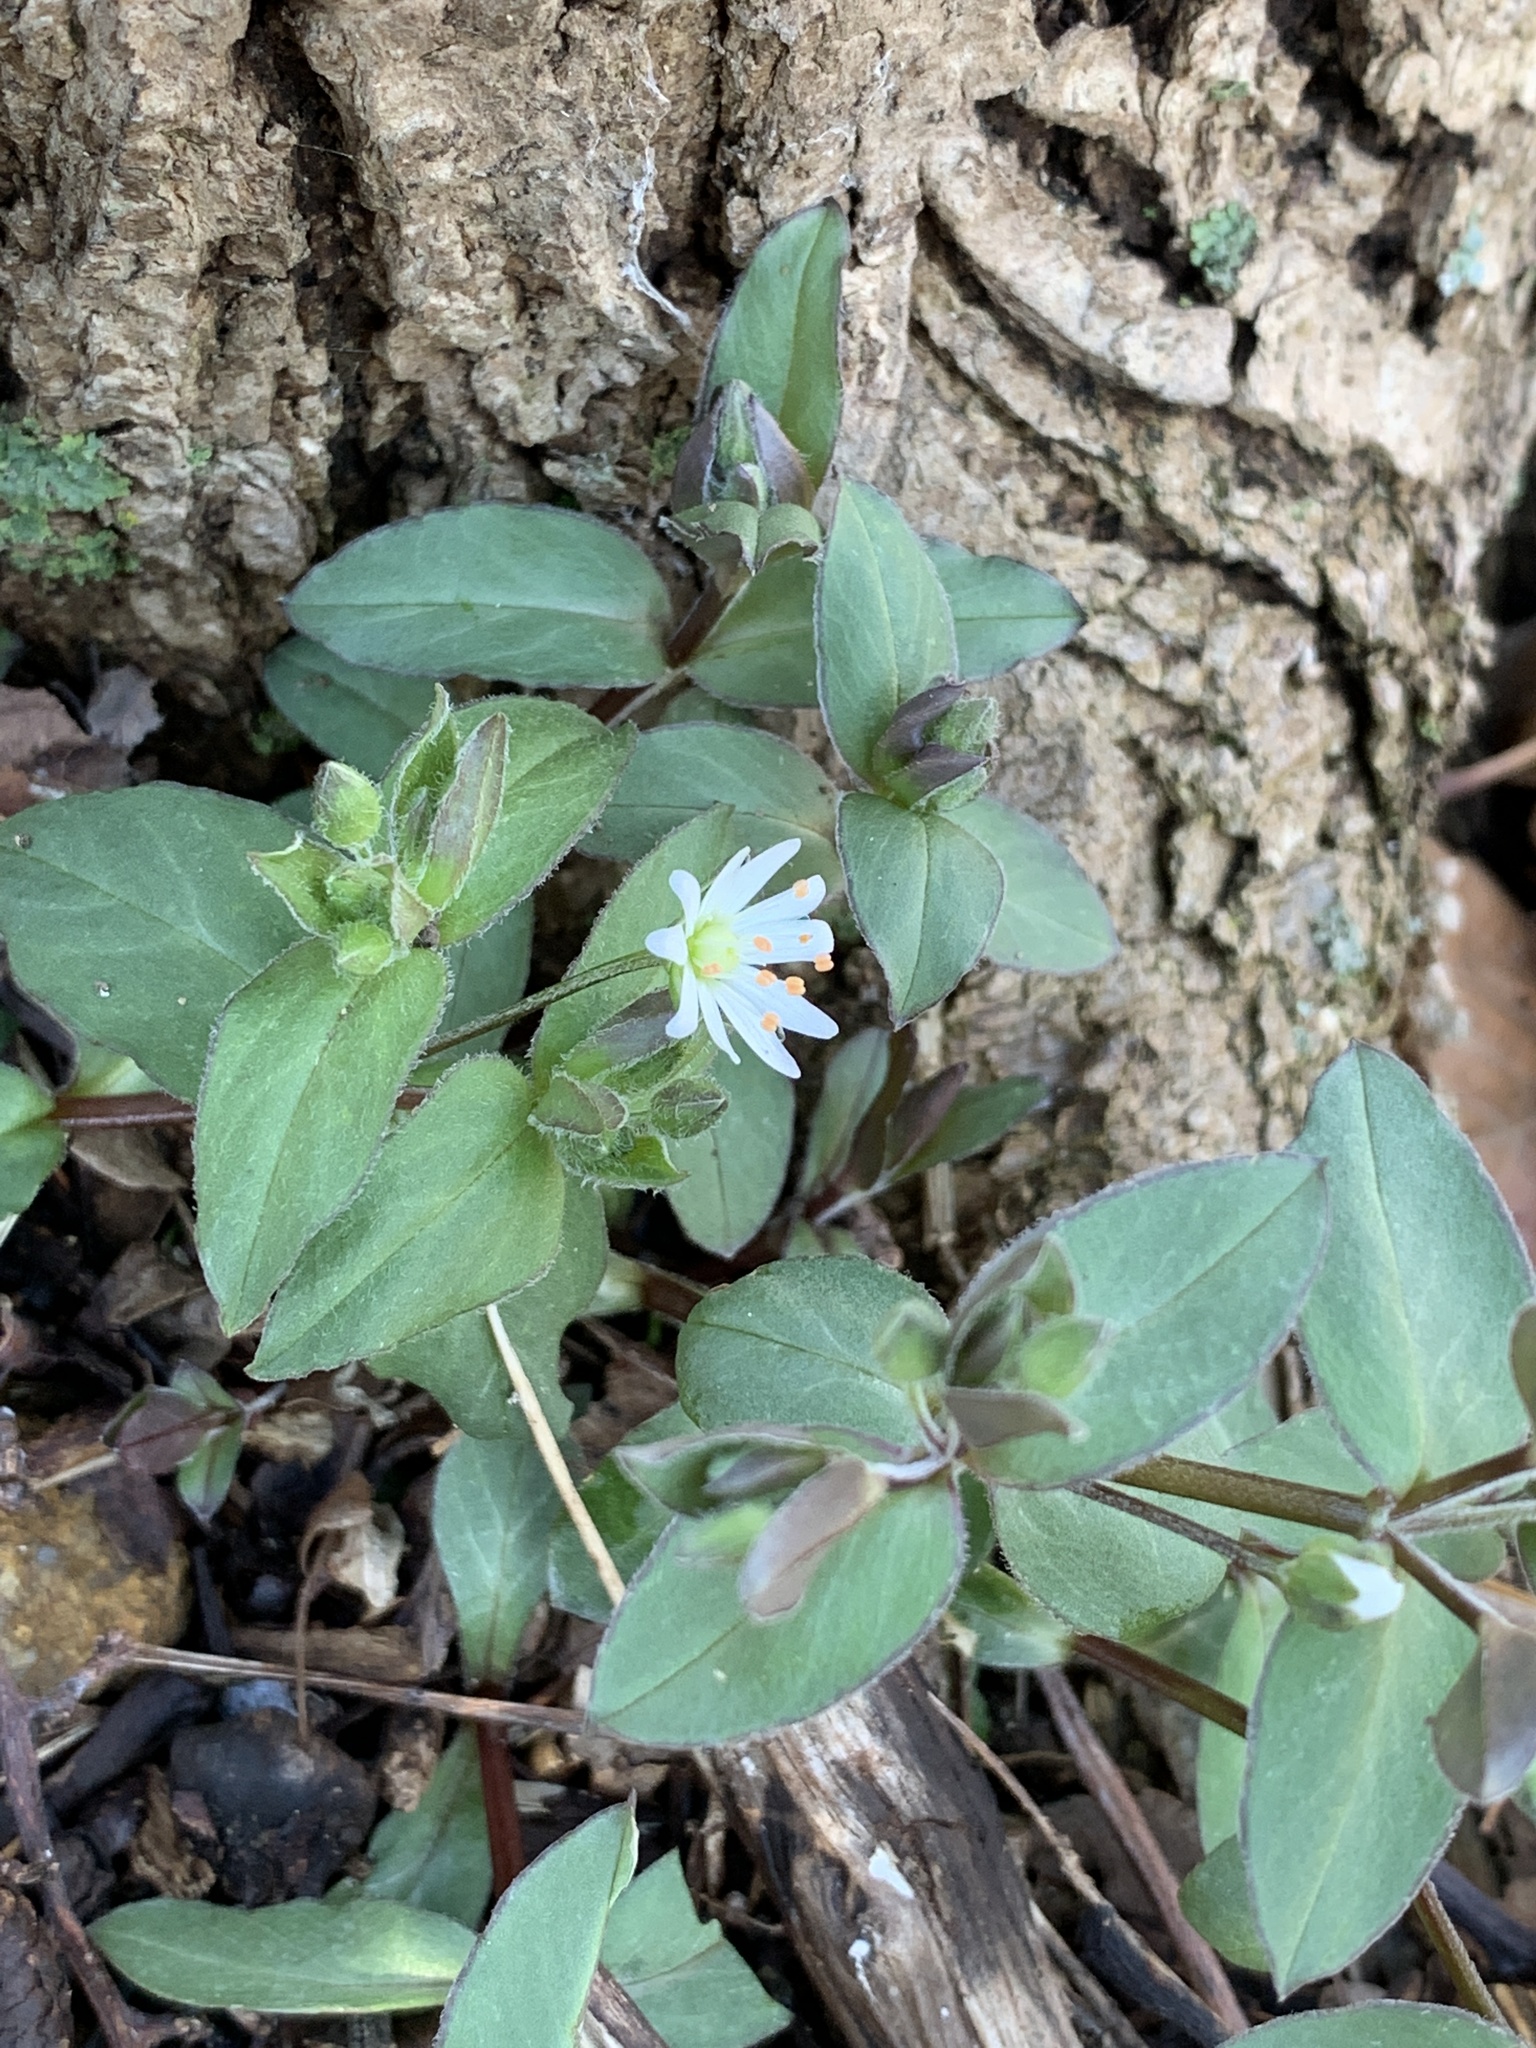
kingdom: Plantae
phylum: Tracheophyta
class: Magnoliopsida
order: Caryophyllales
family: Caryophyllaceae
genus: Stellaria
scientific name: Stellaria pubera
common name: Star chickweed
